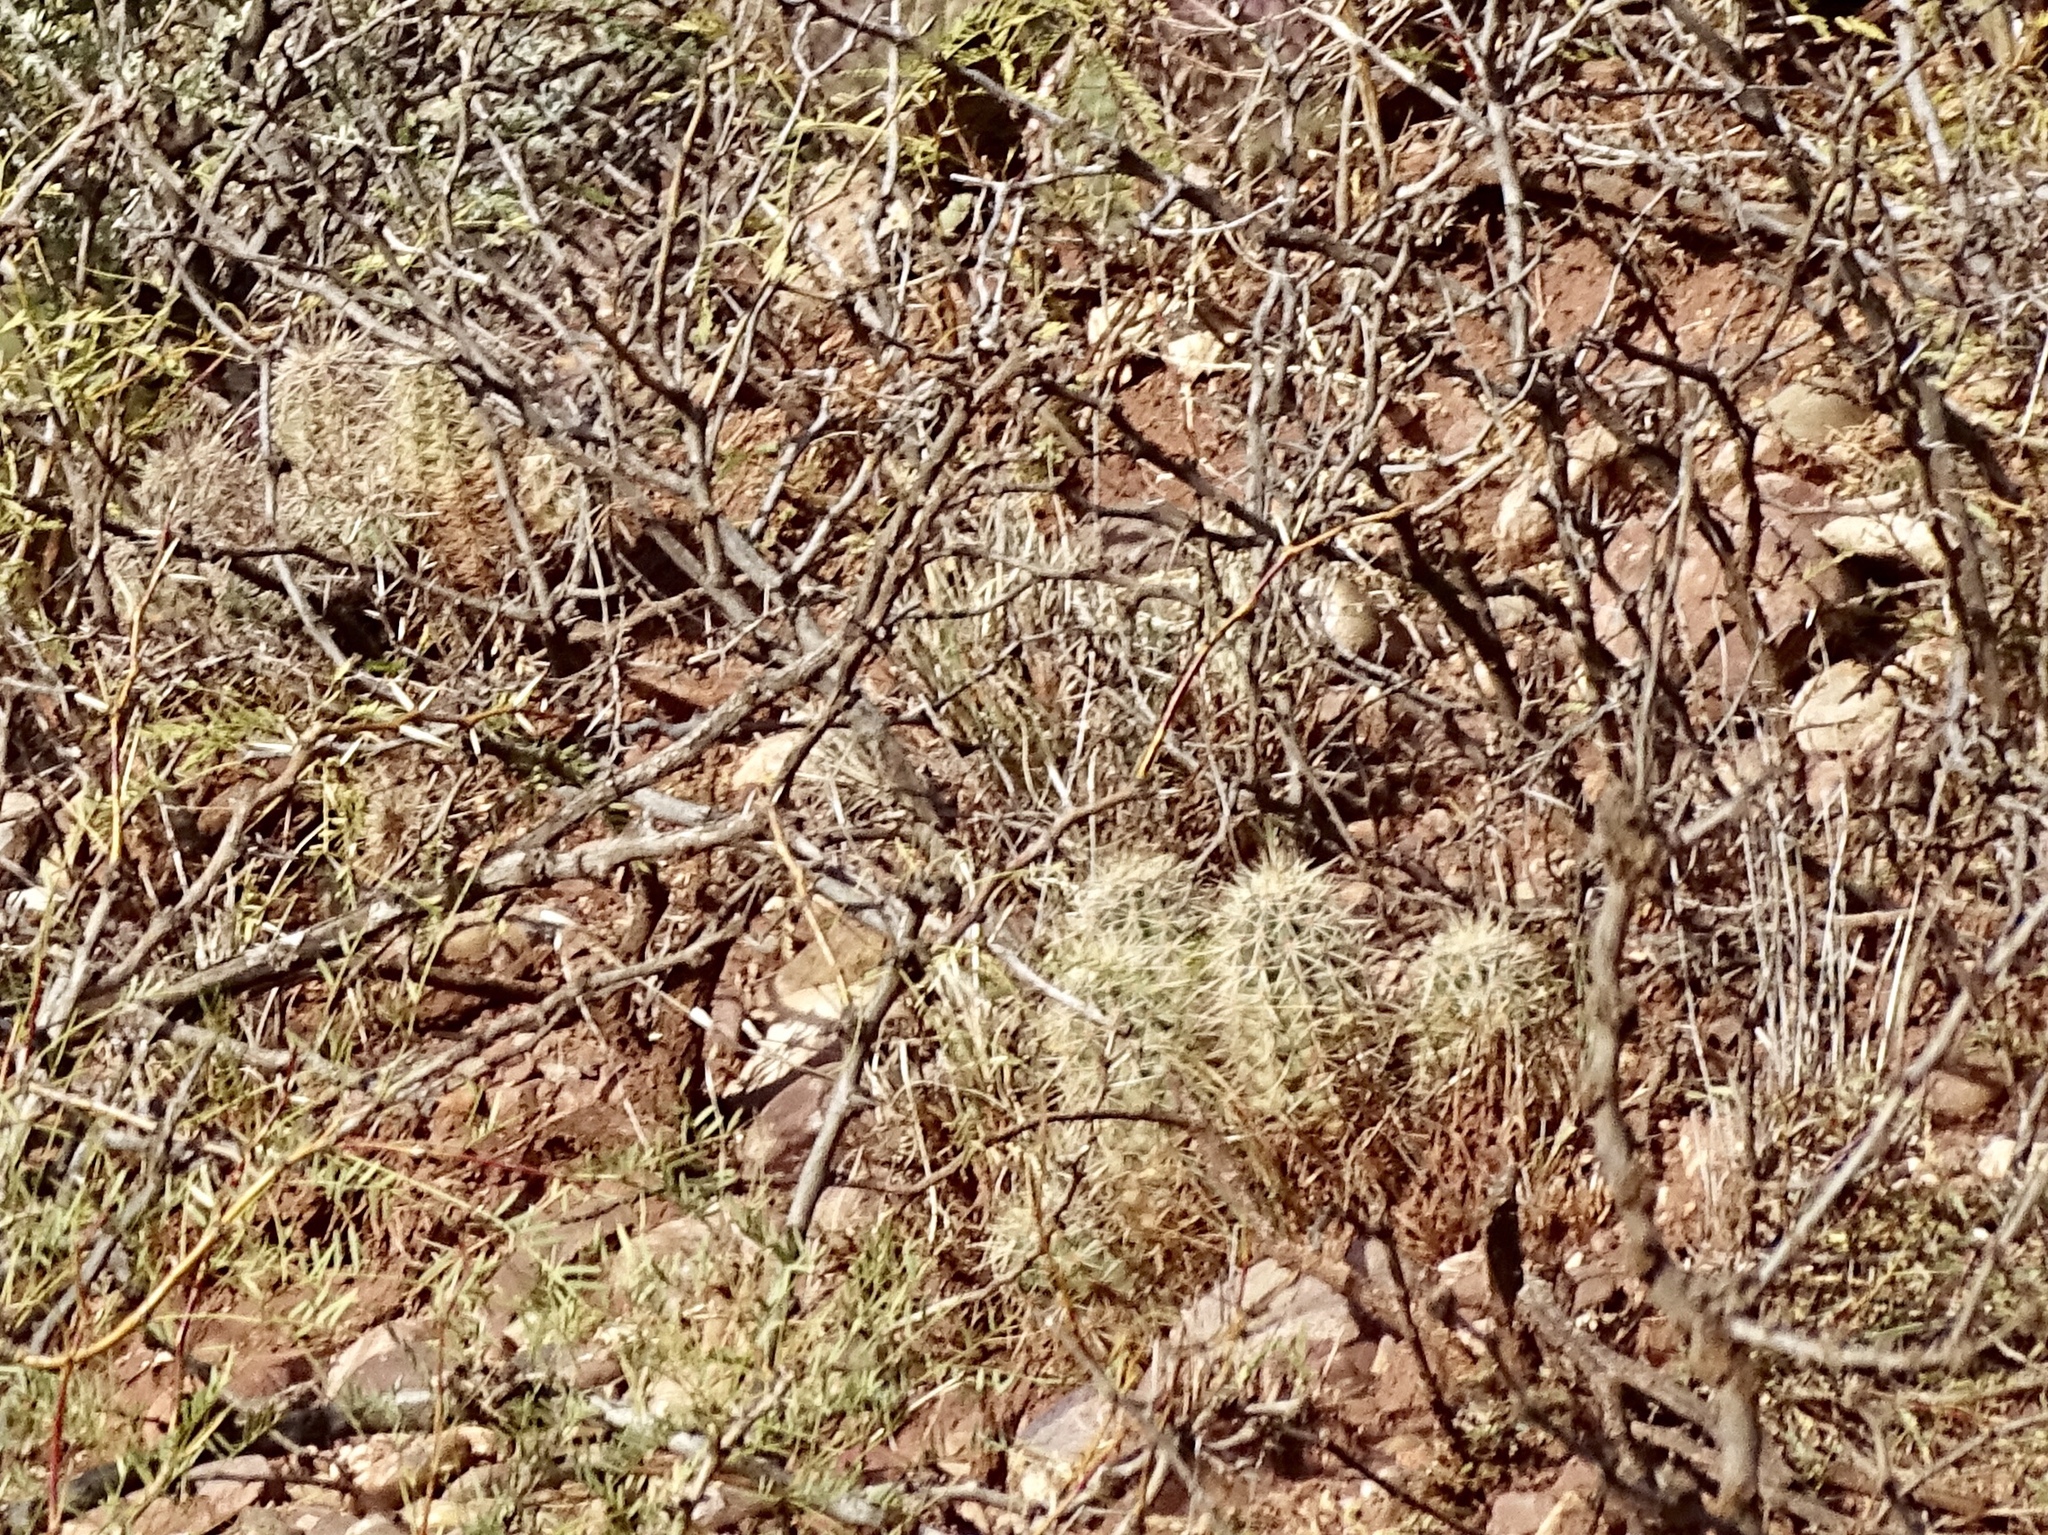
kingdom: Plantae
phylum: Tracheophyta
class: Magnoliopsida
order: Caryophyllales
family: Cactaceae
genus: Echinocereus
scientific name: Echinocereus coccineus
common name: Scarlet hedgehog cactus
